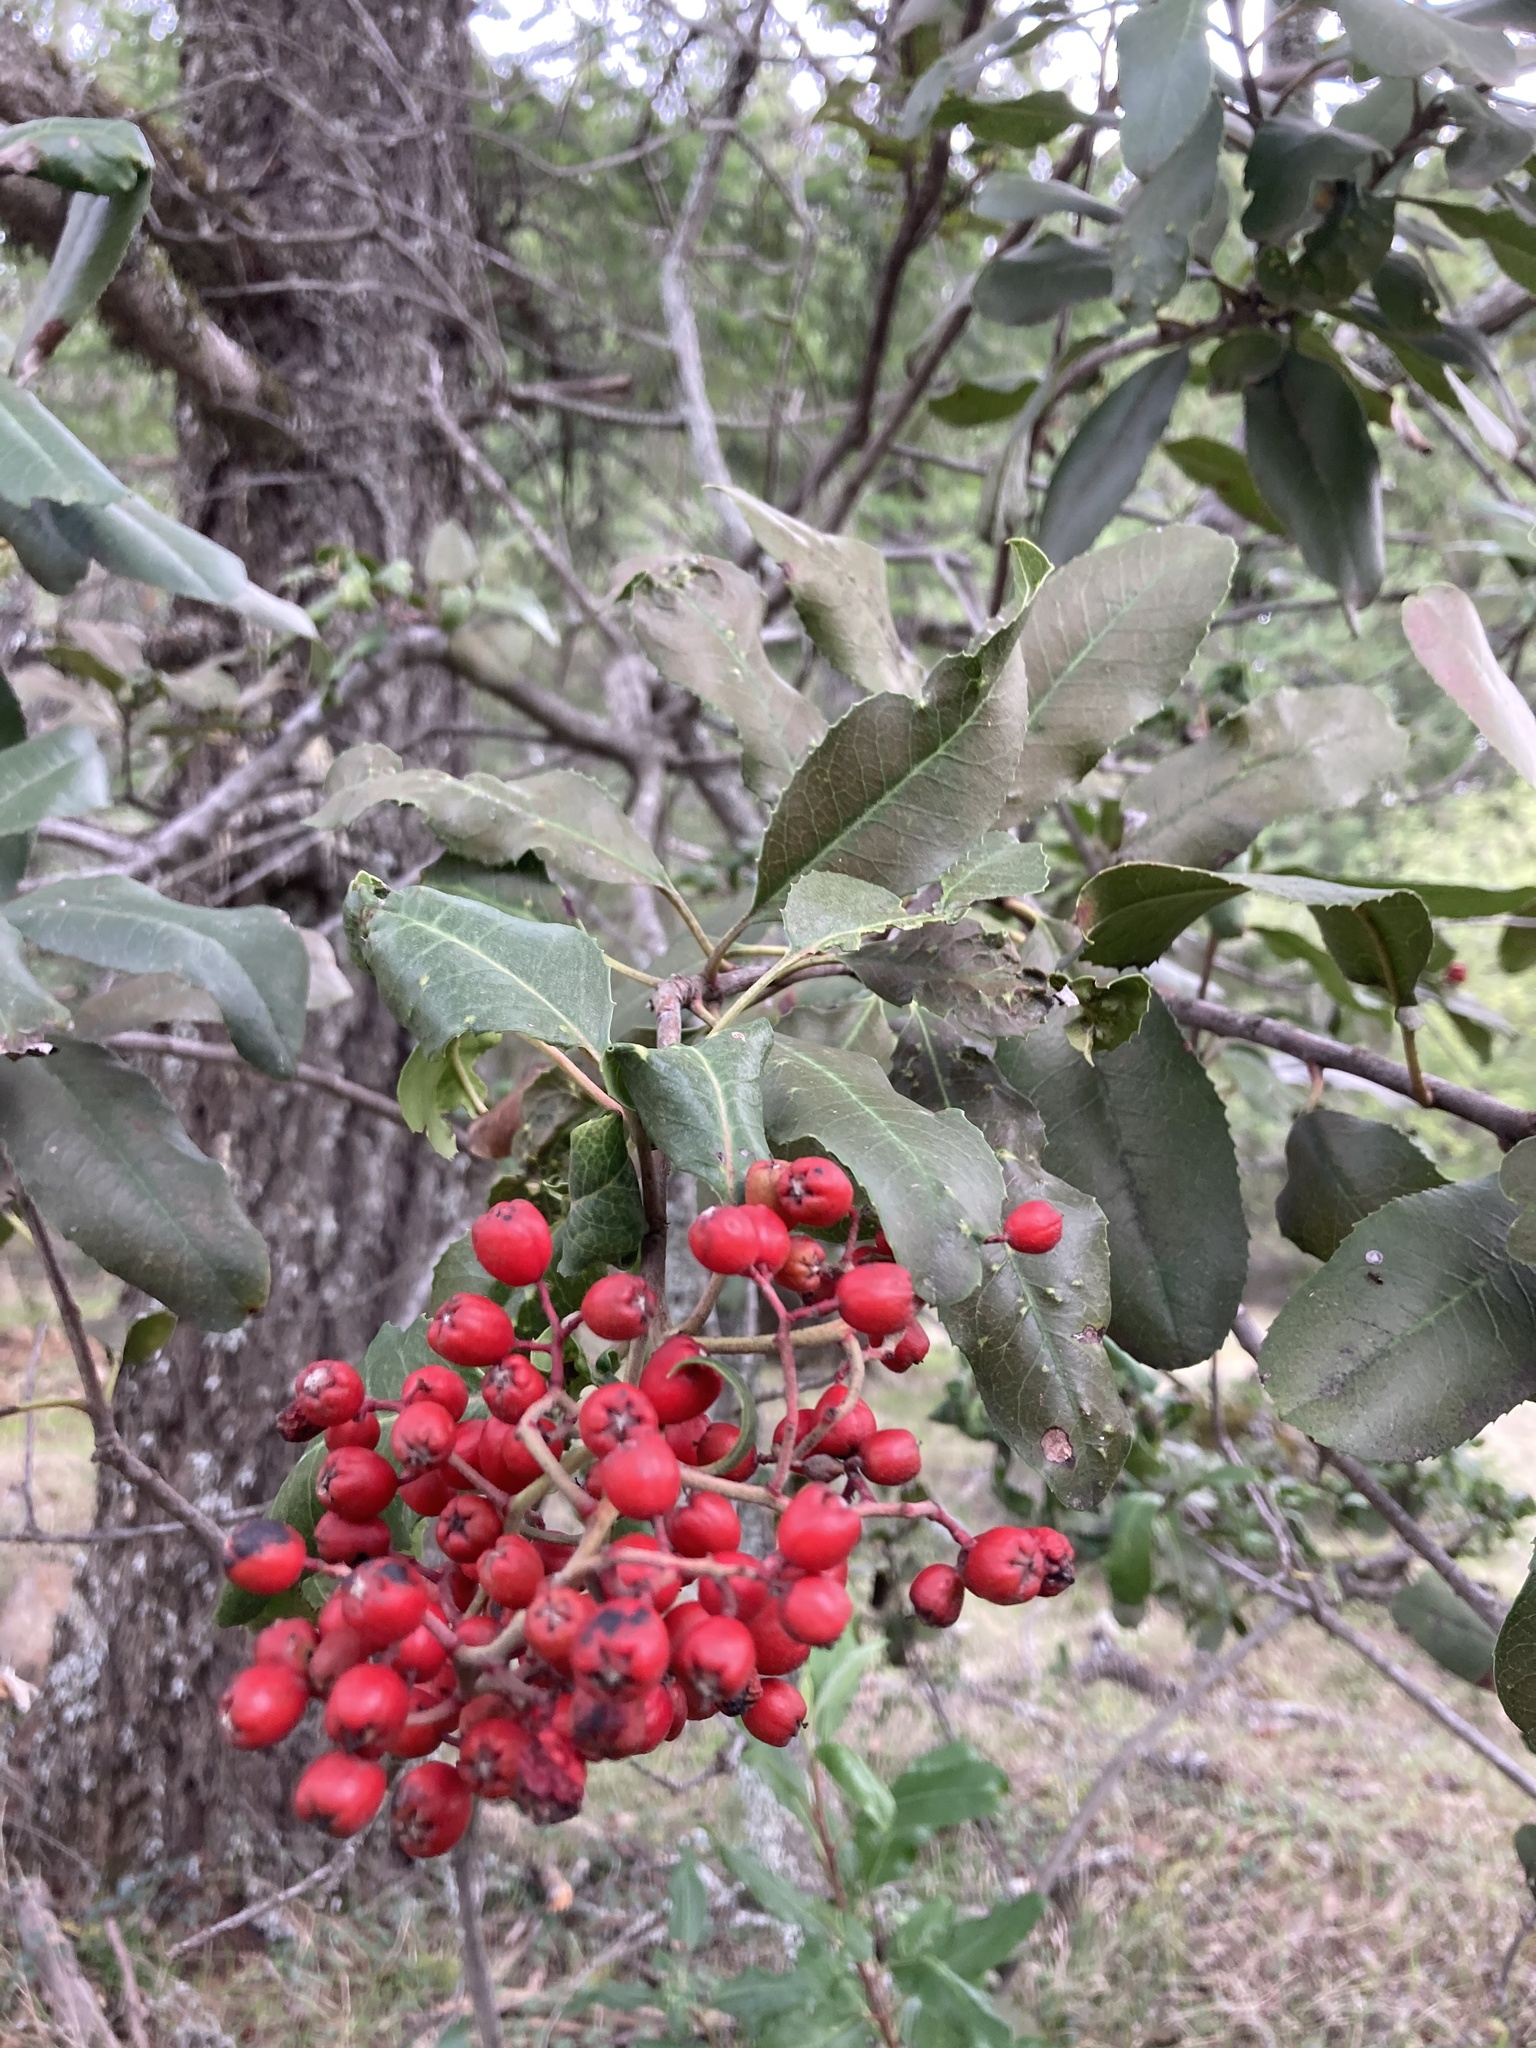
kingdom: Plantae
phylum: Tracheophyta
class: Magnoliopsida
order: Rosales
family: Rosaceae
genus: Heteromeles
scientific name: Heteromeles arbutifolia
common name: California-holly
